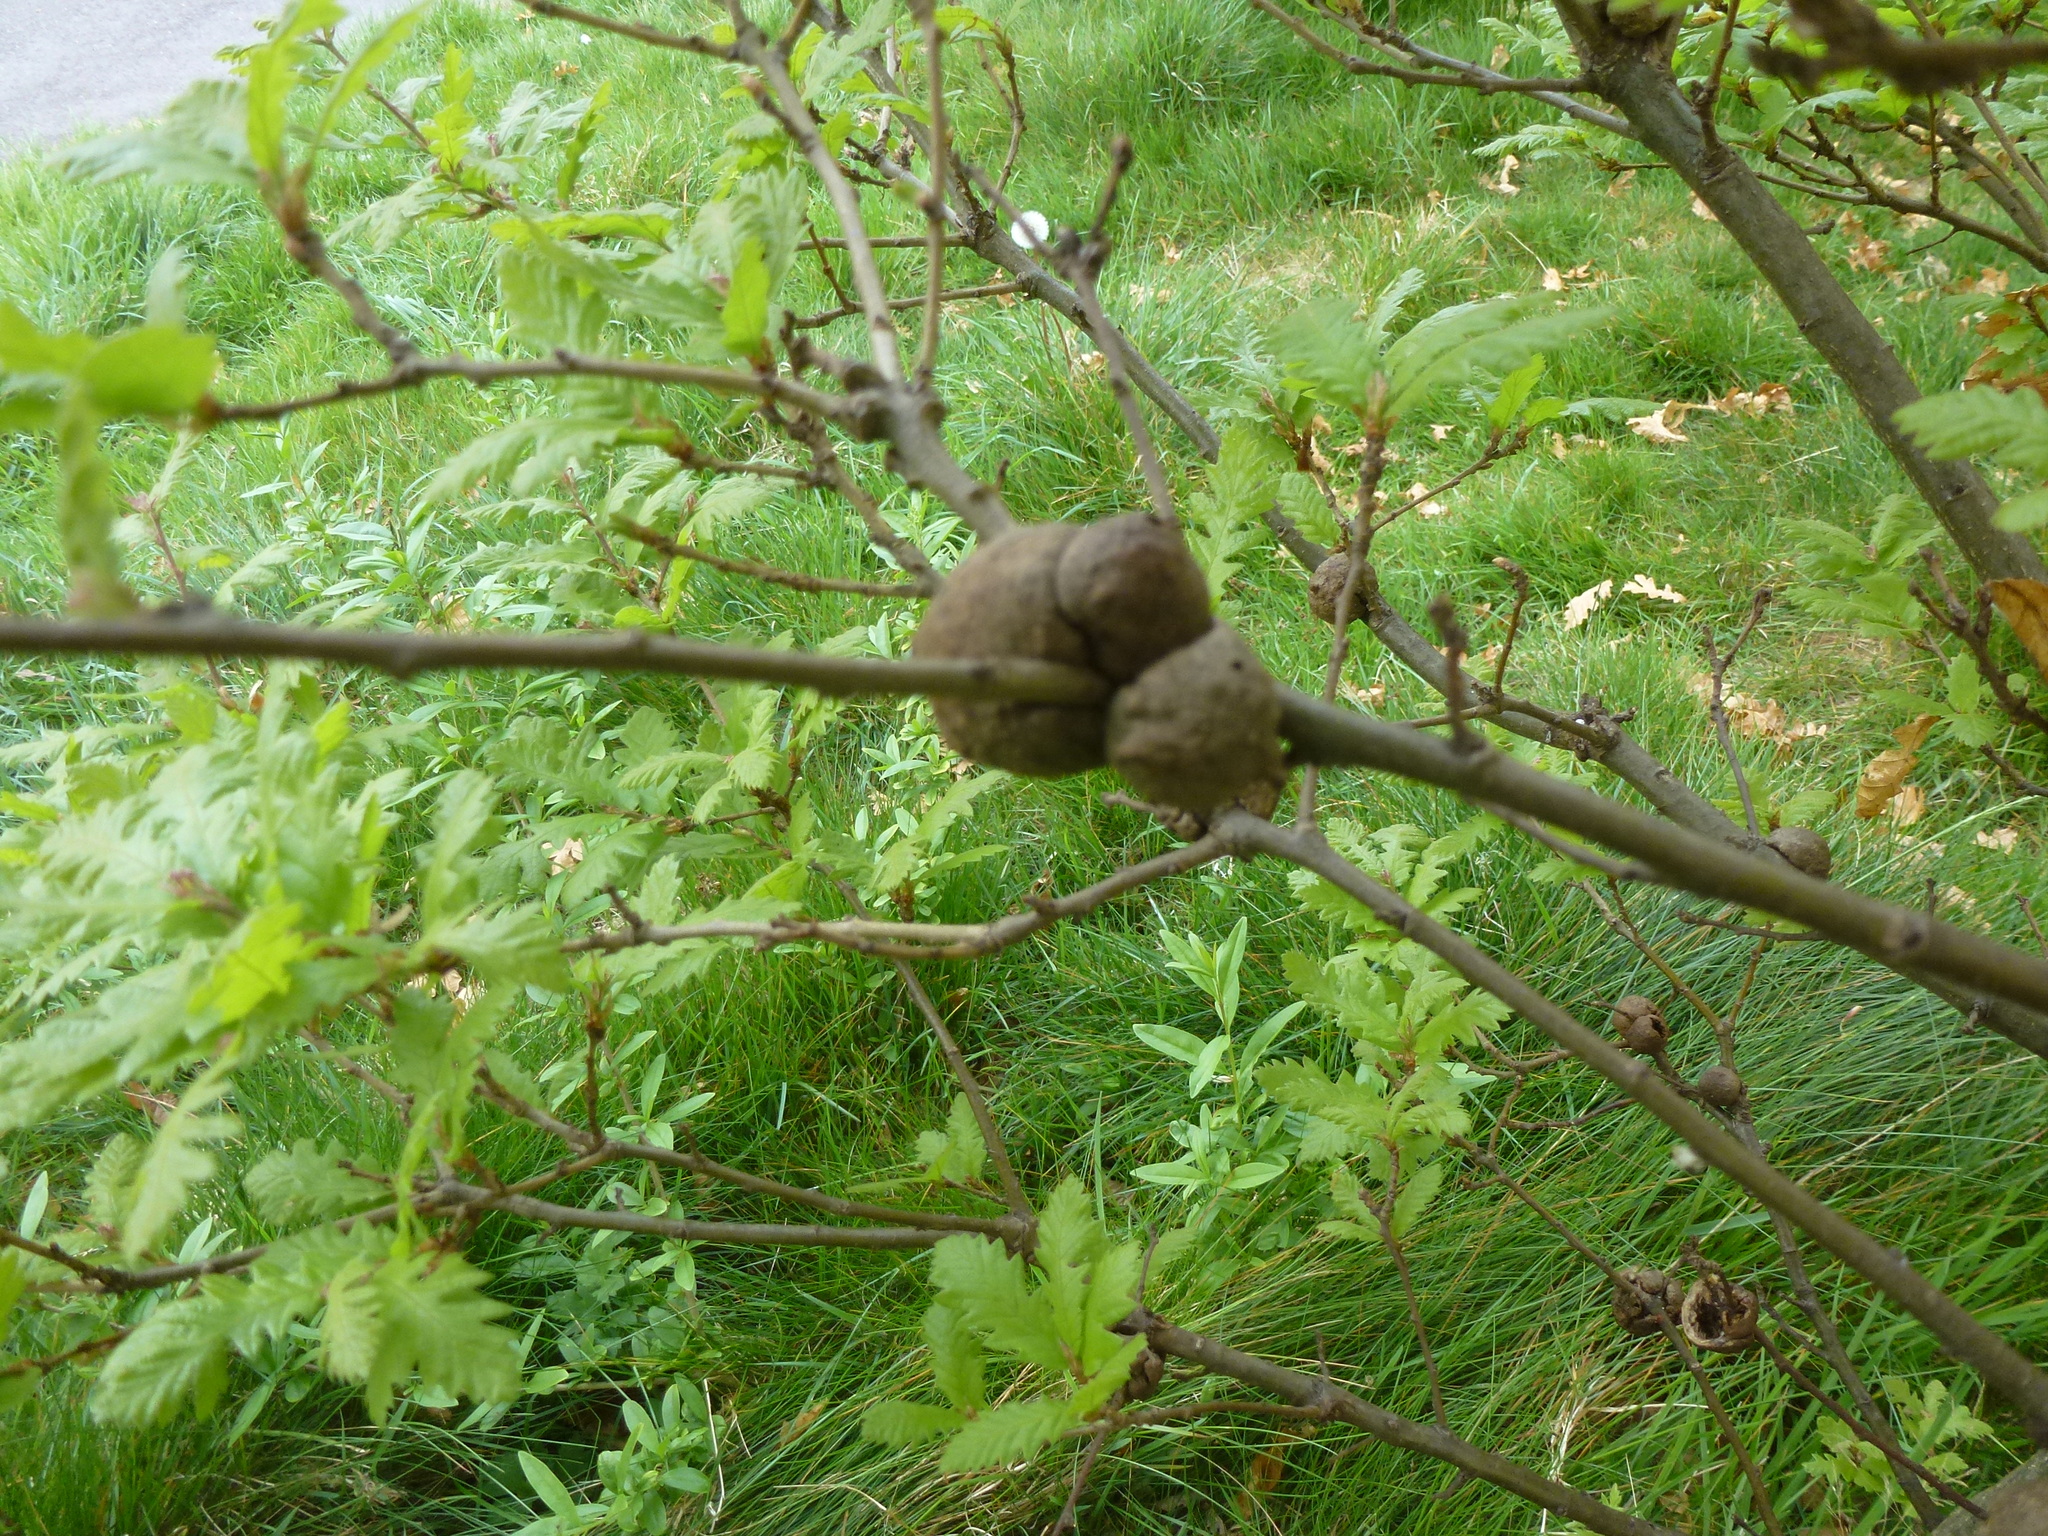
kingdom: Animalia
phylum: Arthropoda
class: Insecta
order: Hymenoptera
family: Cynipidae
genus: Aphelonyx
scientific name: Aphelonyx cerricola
